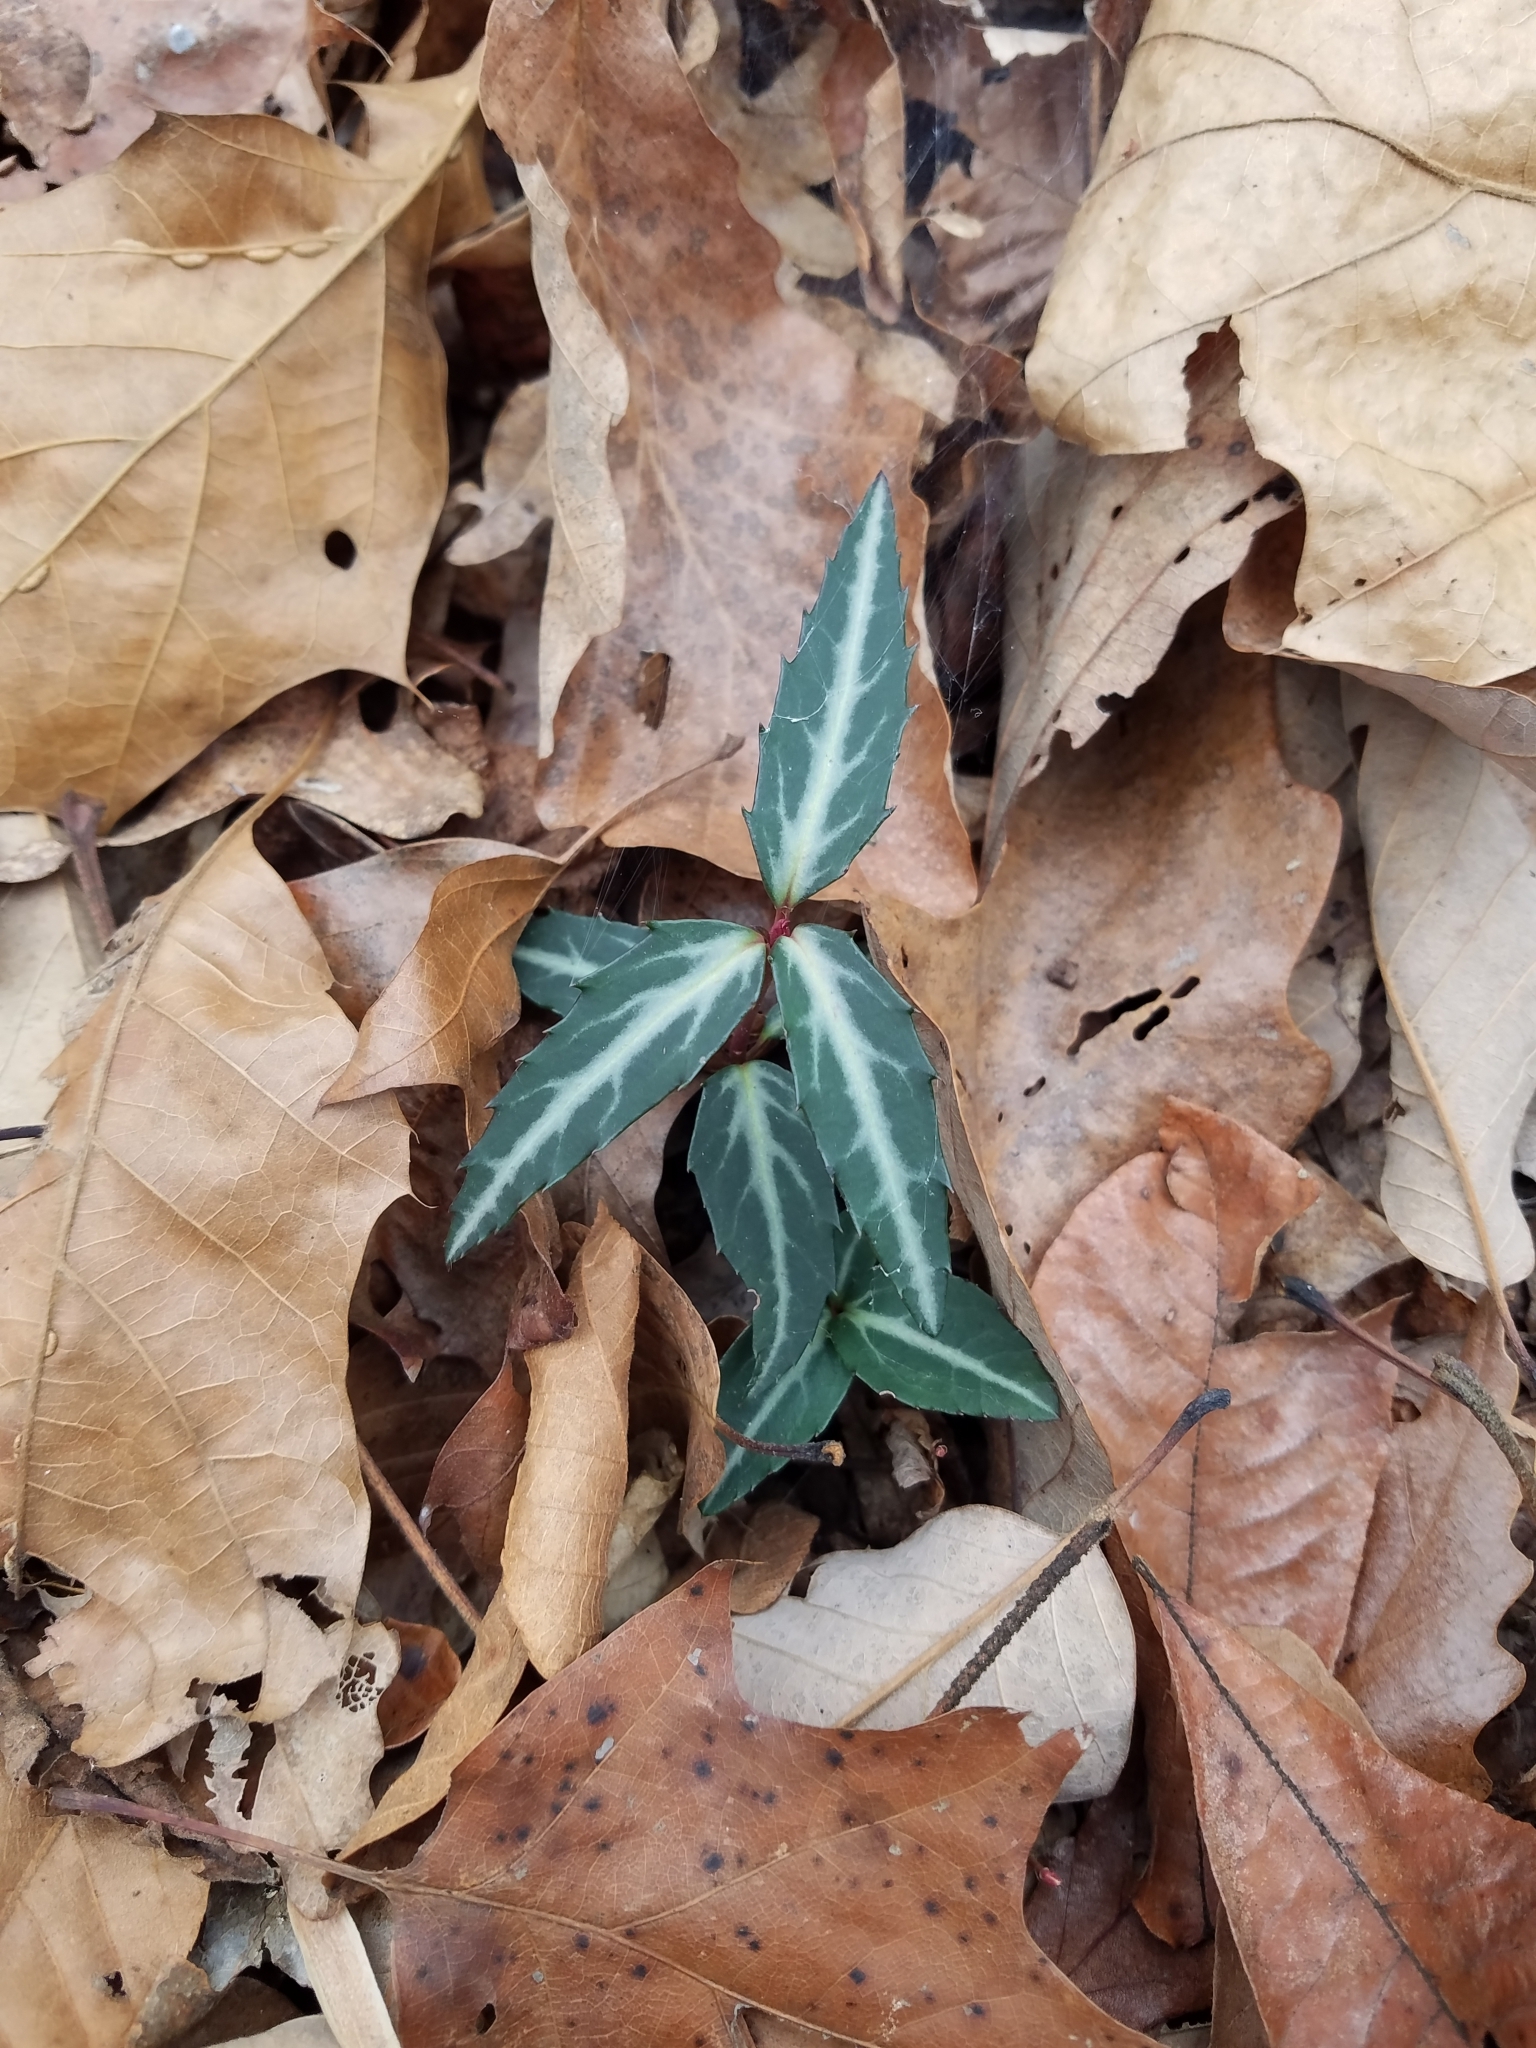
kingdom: Plantae
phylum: Tracheophyta
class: Magnoliopsida
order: Ericales
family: Ericaceae
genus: Chimaphila
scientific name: Chimaphila maculata
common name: Spotted pipsissewa
